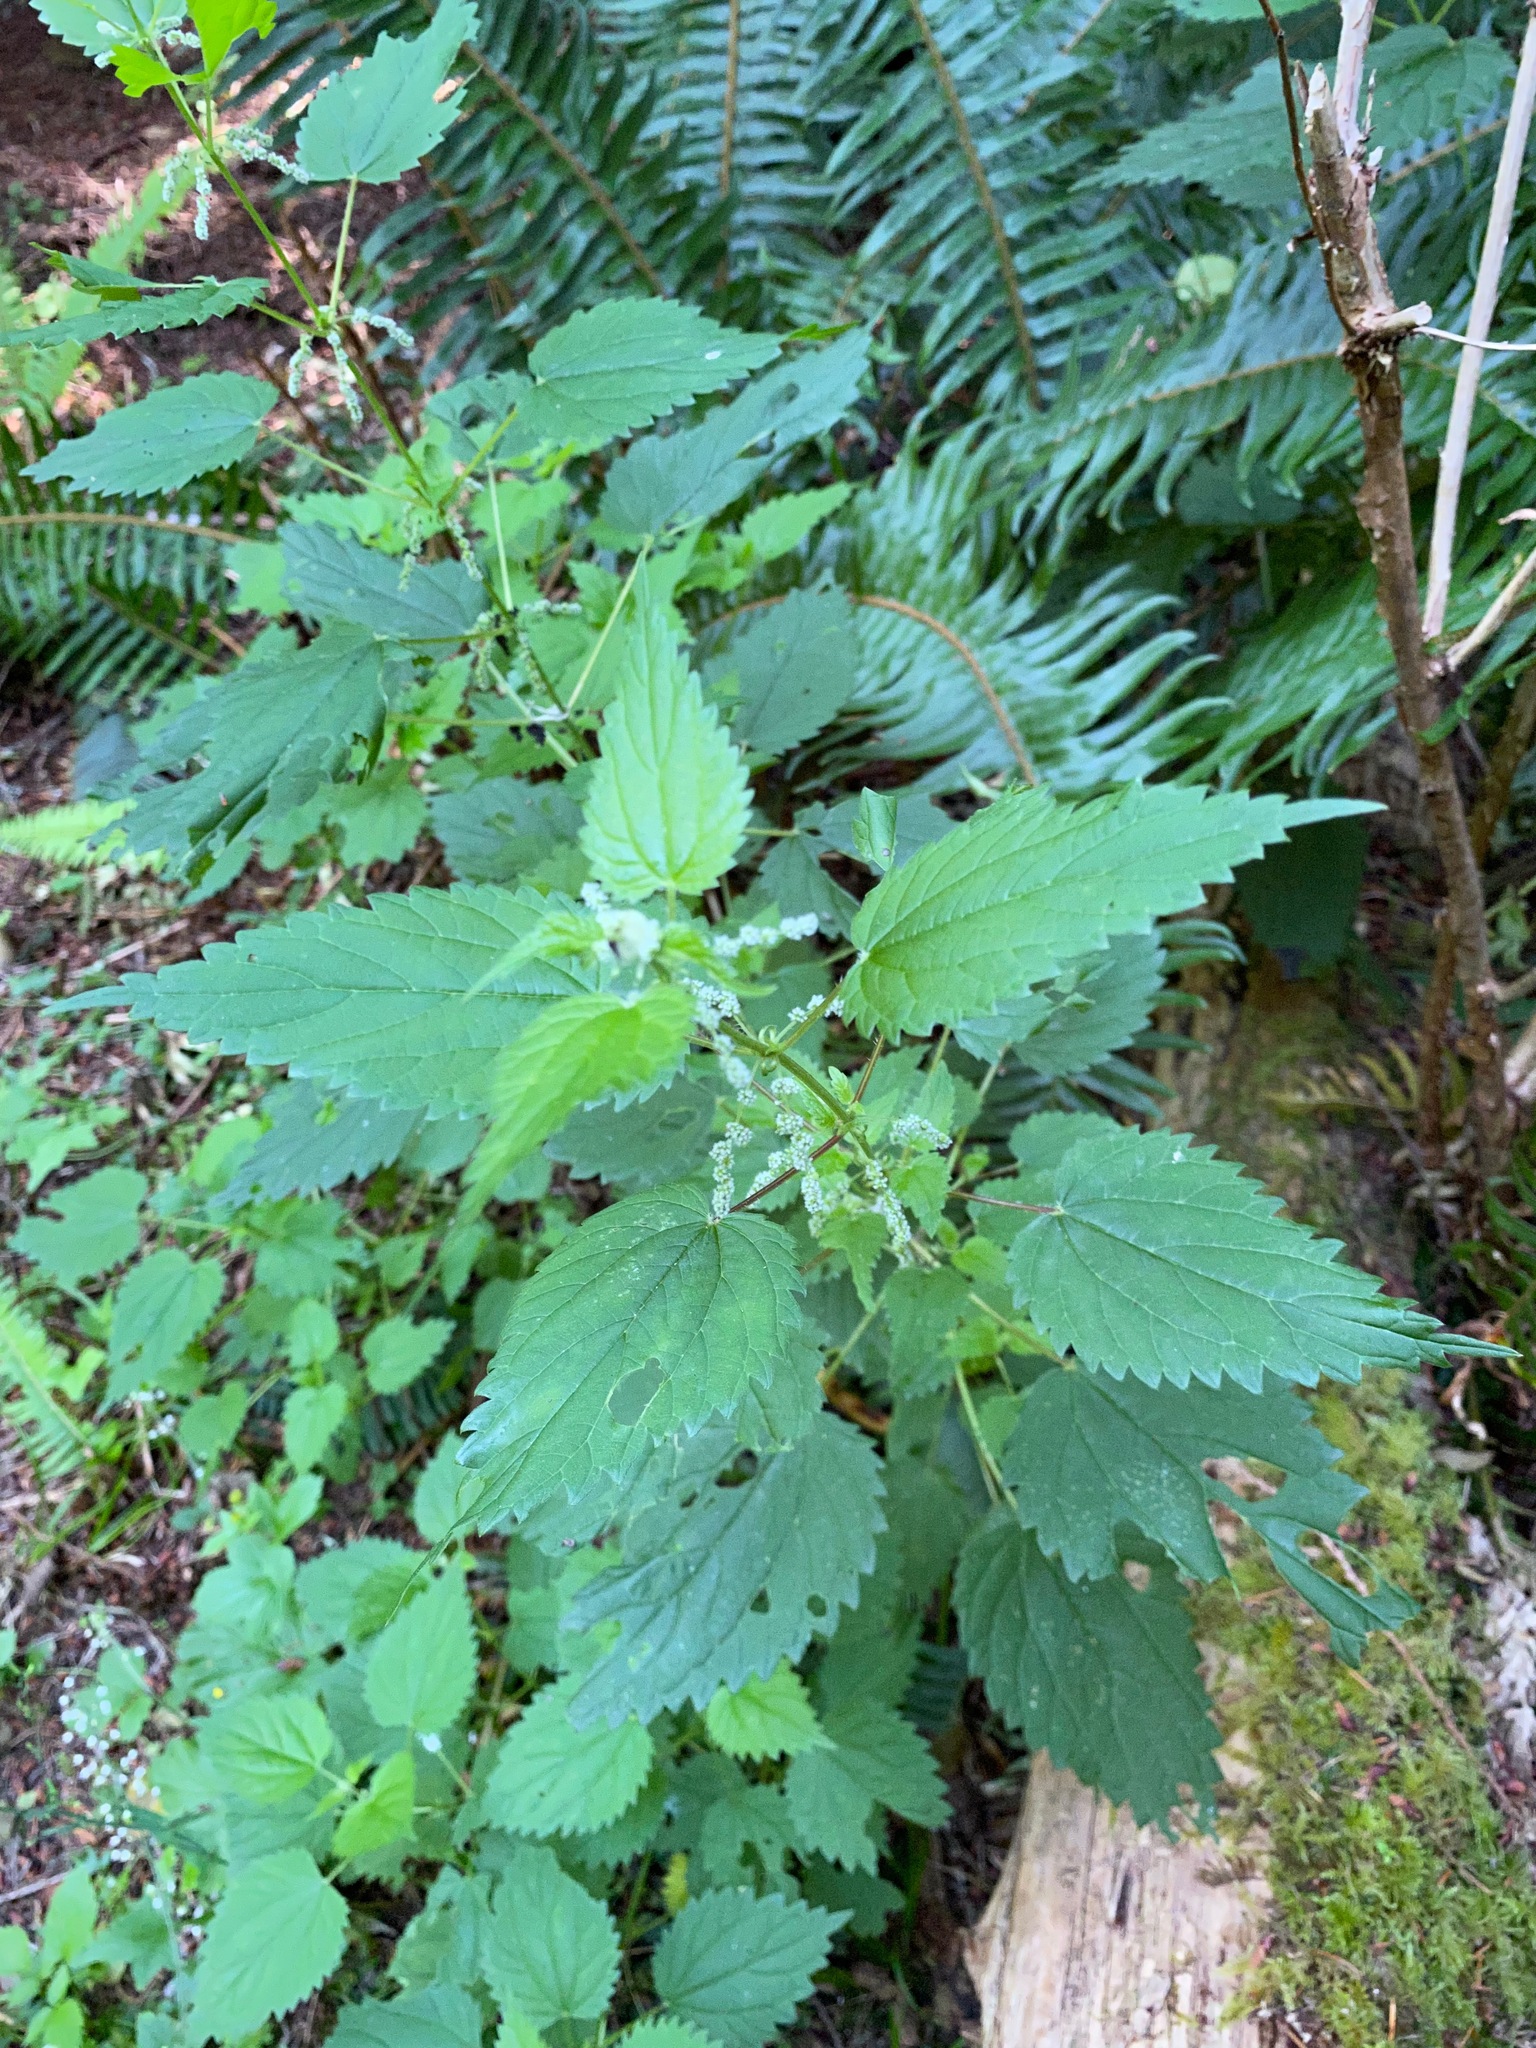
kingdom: Plantae
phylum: Tracheophyta
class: Magnoliopsida
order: Rosales
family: Urticaceae
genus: Urtica
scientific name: Urtica dioica
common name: Common nettle
